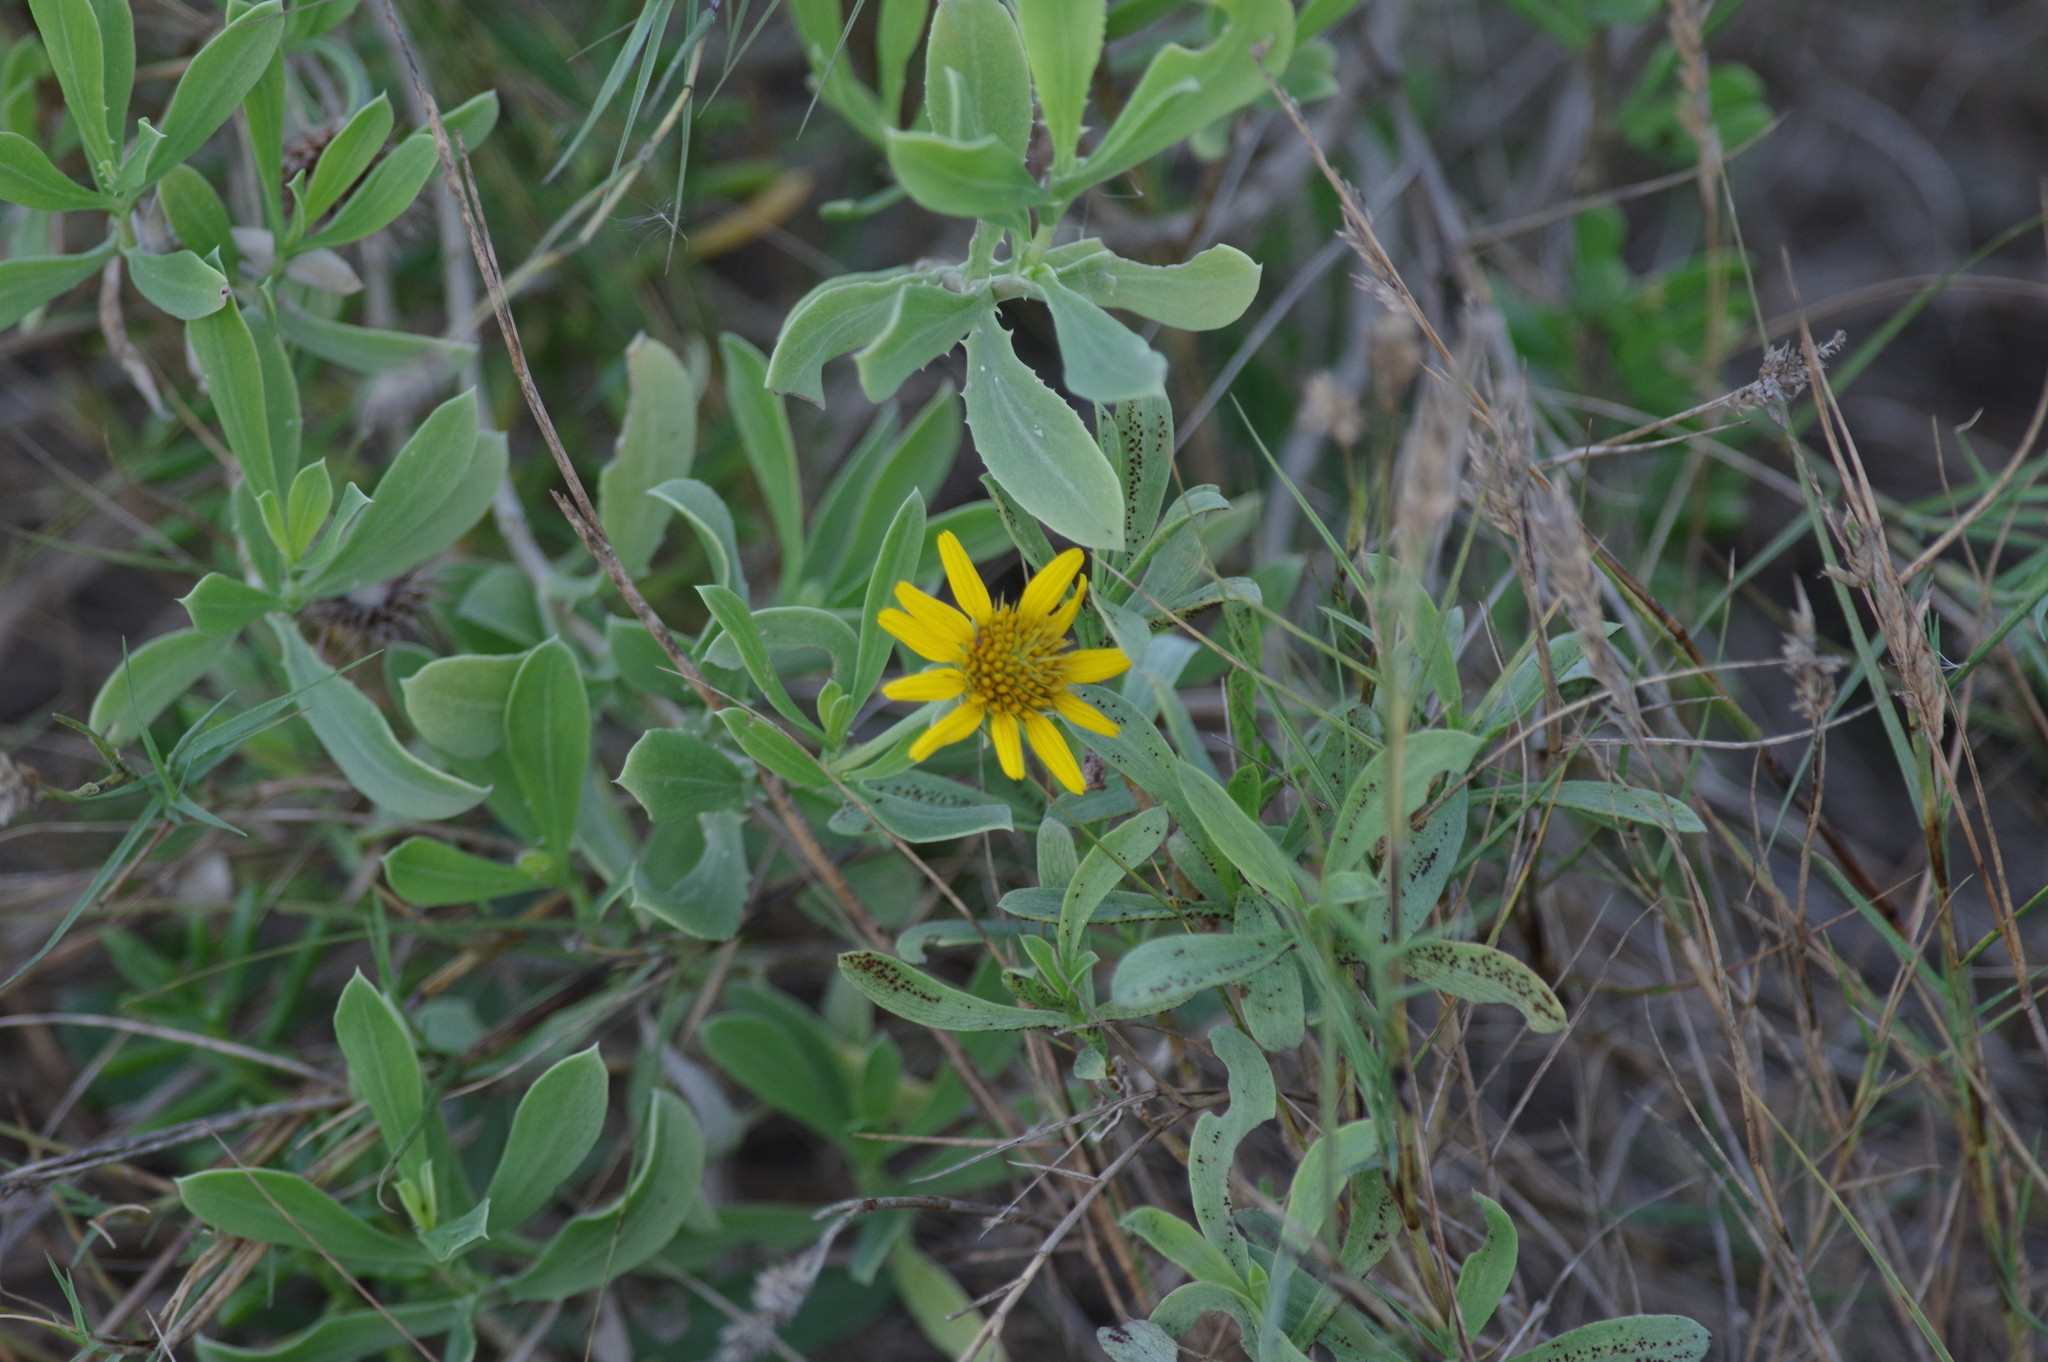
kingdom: Plantae
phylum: Tracheophyta
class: Magnoliopsida
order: Asterales
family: Asteraceae
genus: Borrichia
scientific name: Borrichia frutescens
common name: Sea oxeye
